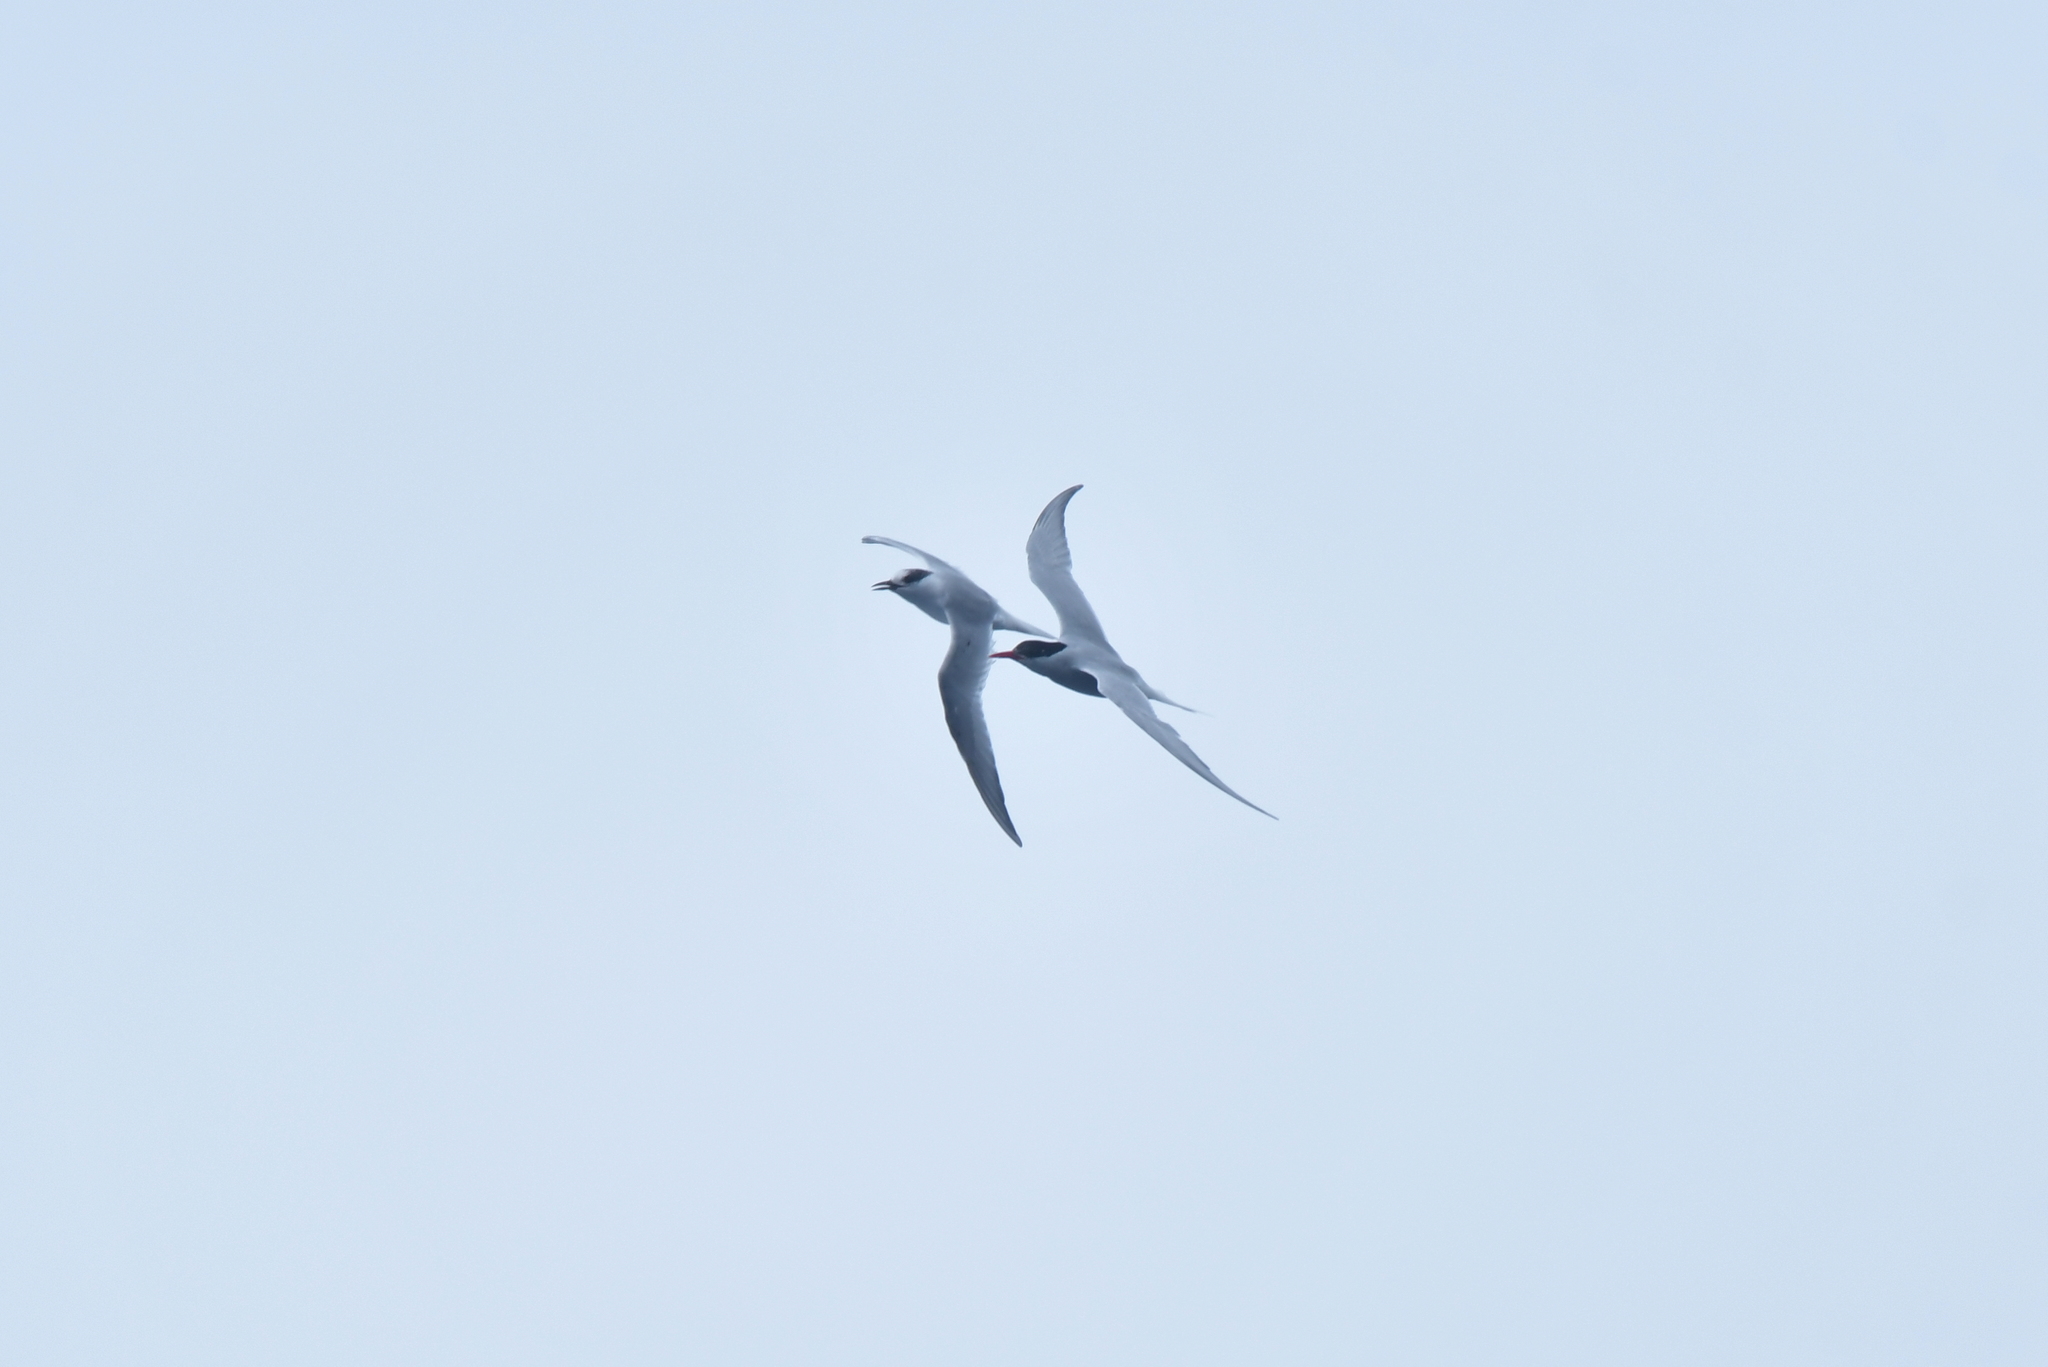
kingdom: Animalia
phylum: Chordata
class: Aves
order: Charadriiformes
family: Laridae
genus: Sterna
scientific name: Sterna vittata
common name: Antarctic tern
